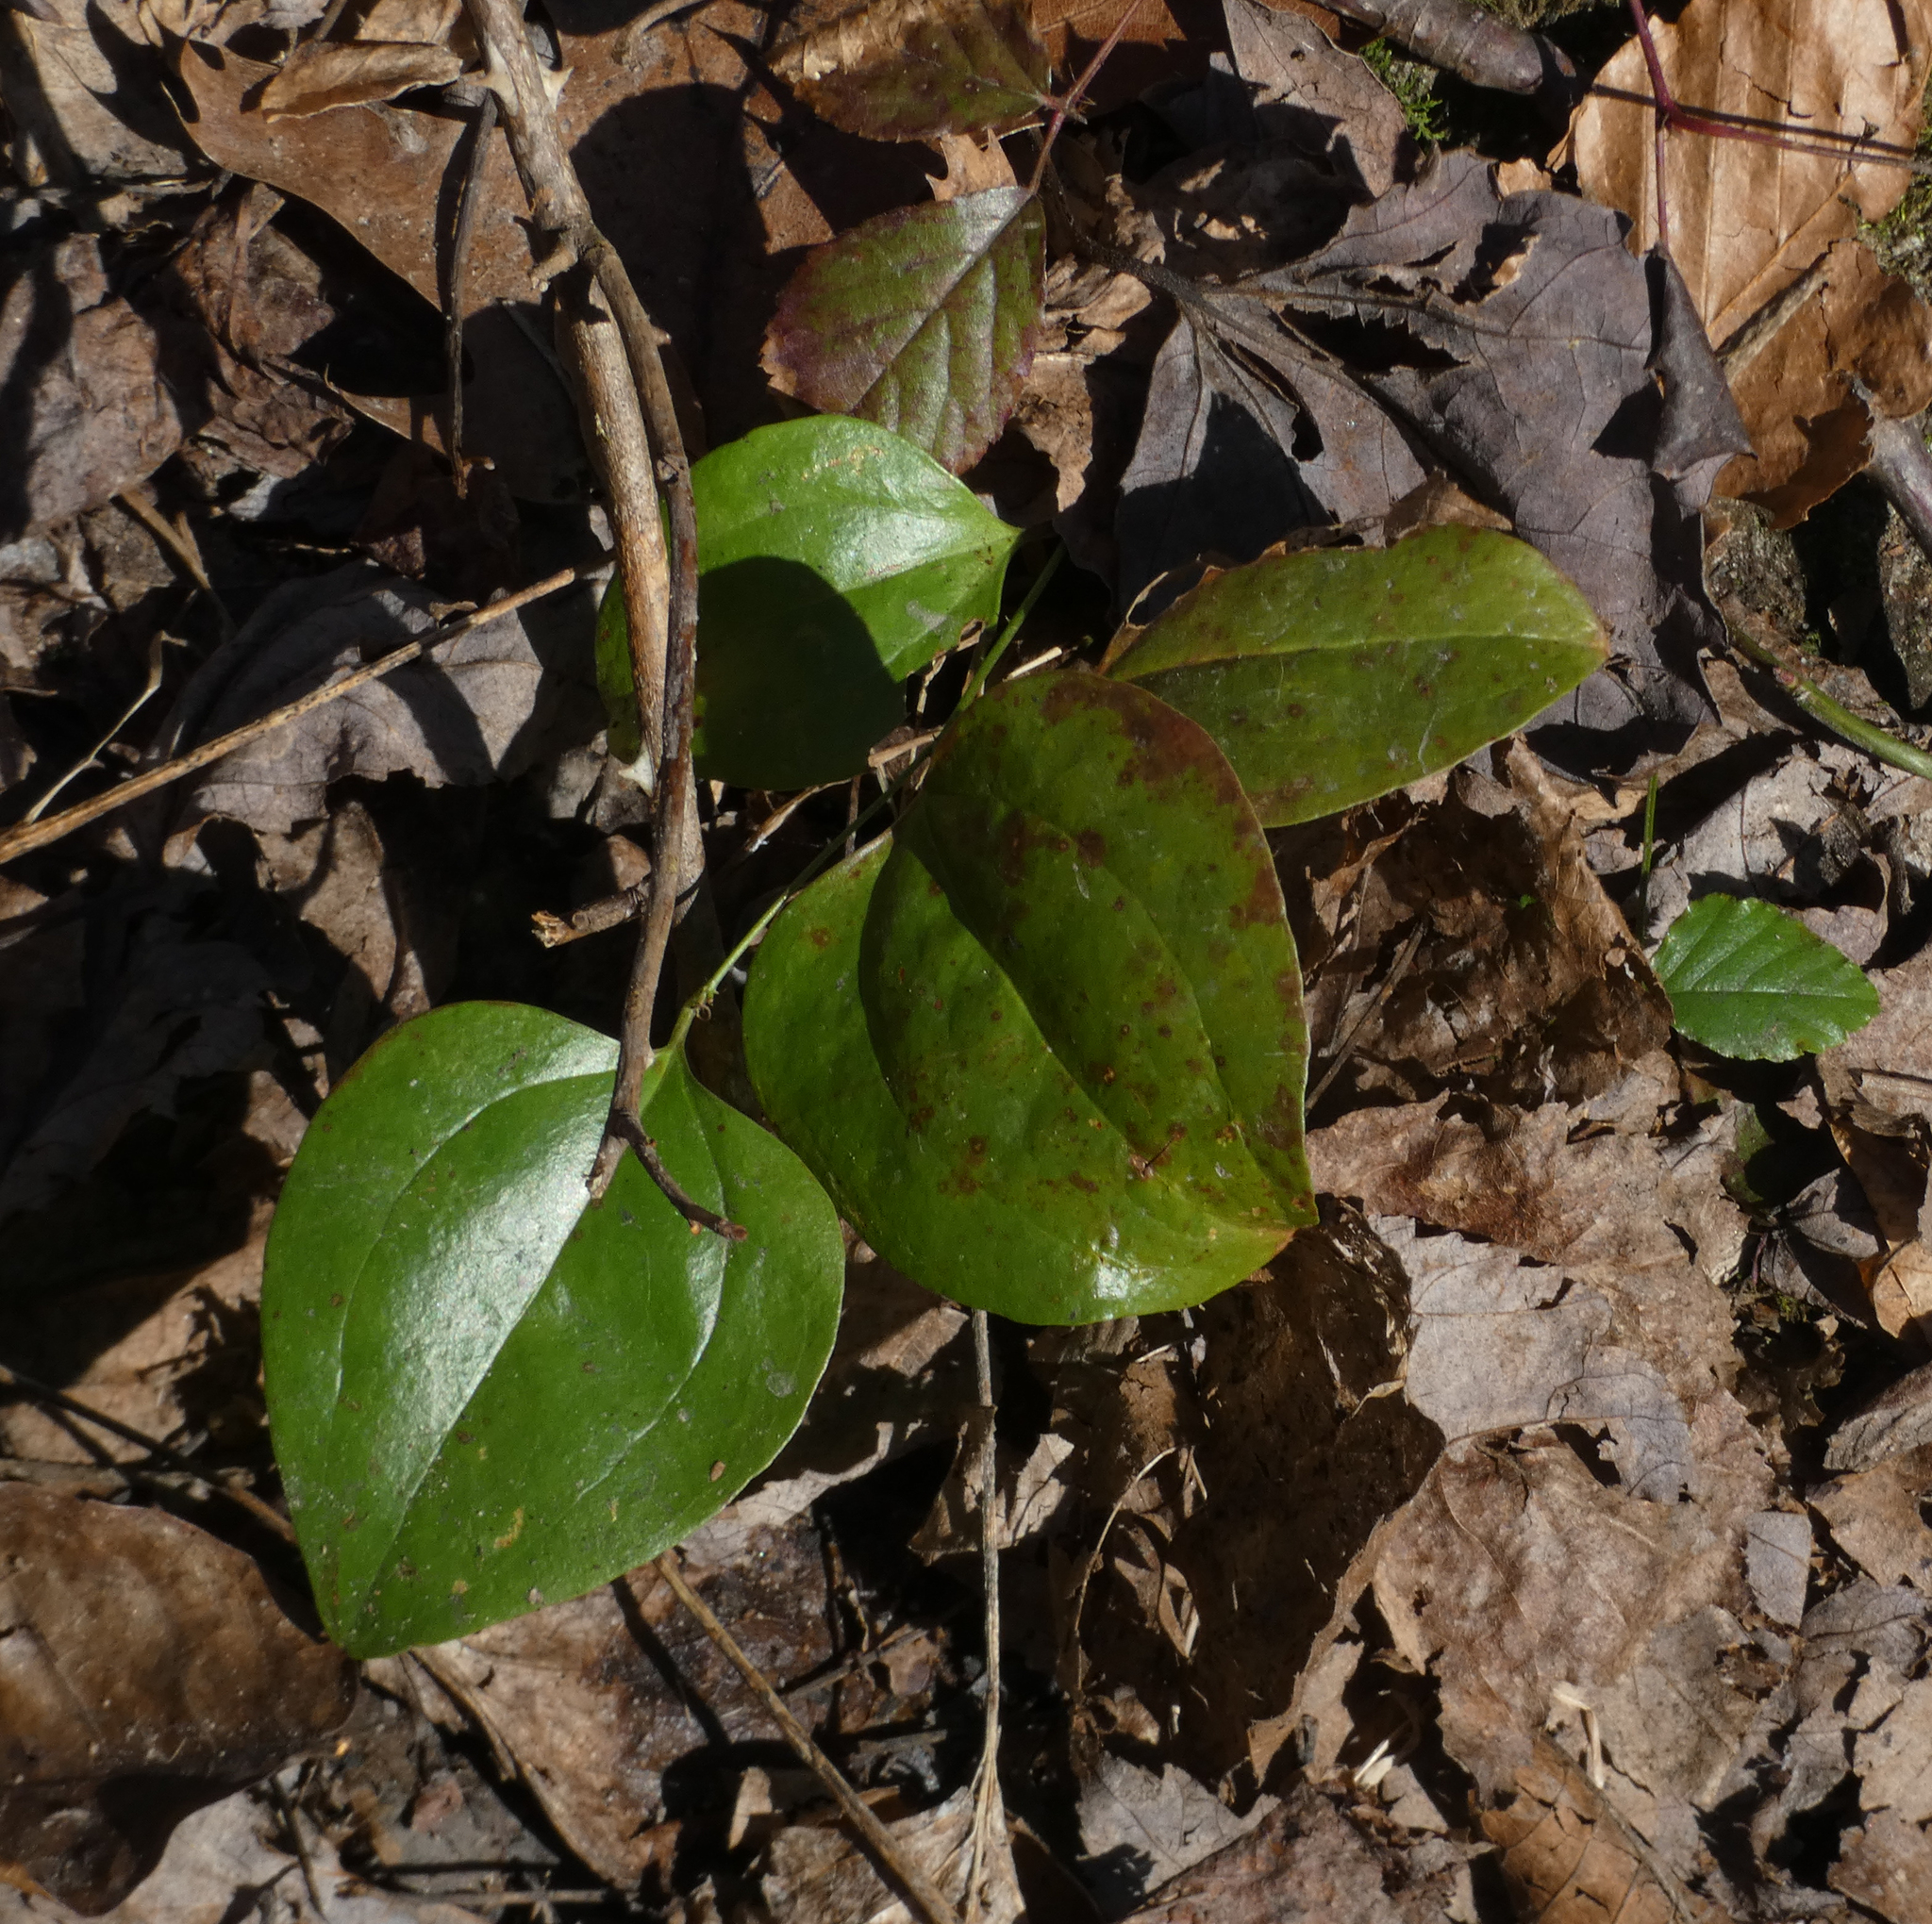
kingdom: Plantae
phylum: Tracheophyta
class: Liliopsida
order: Liliales
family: Smilacaceae
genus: Smilax
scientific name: Smilax
